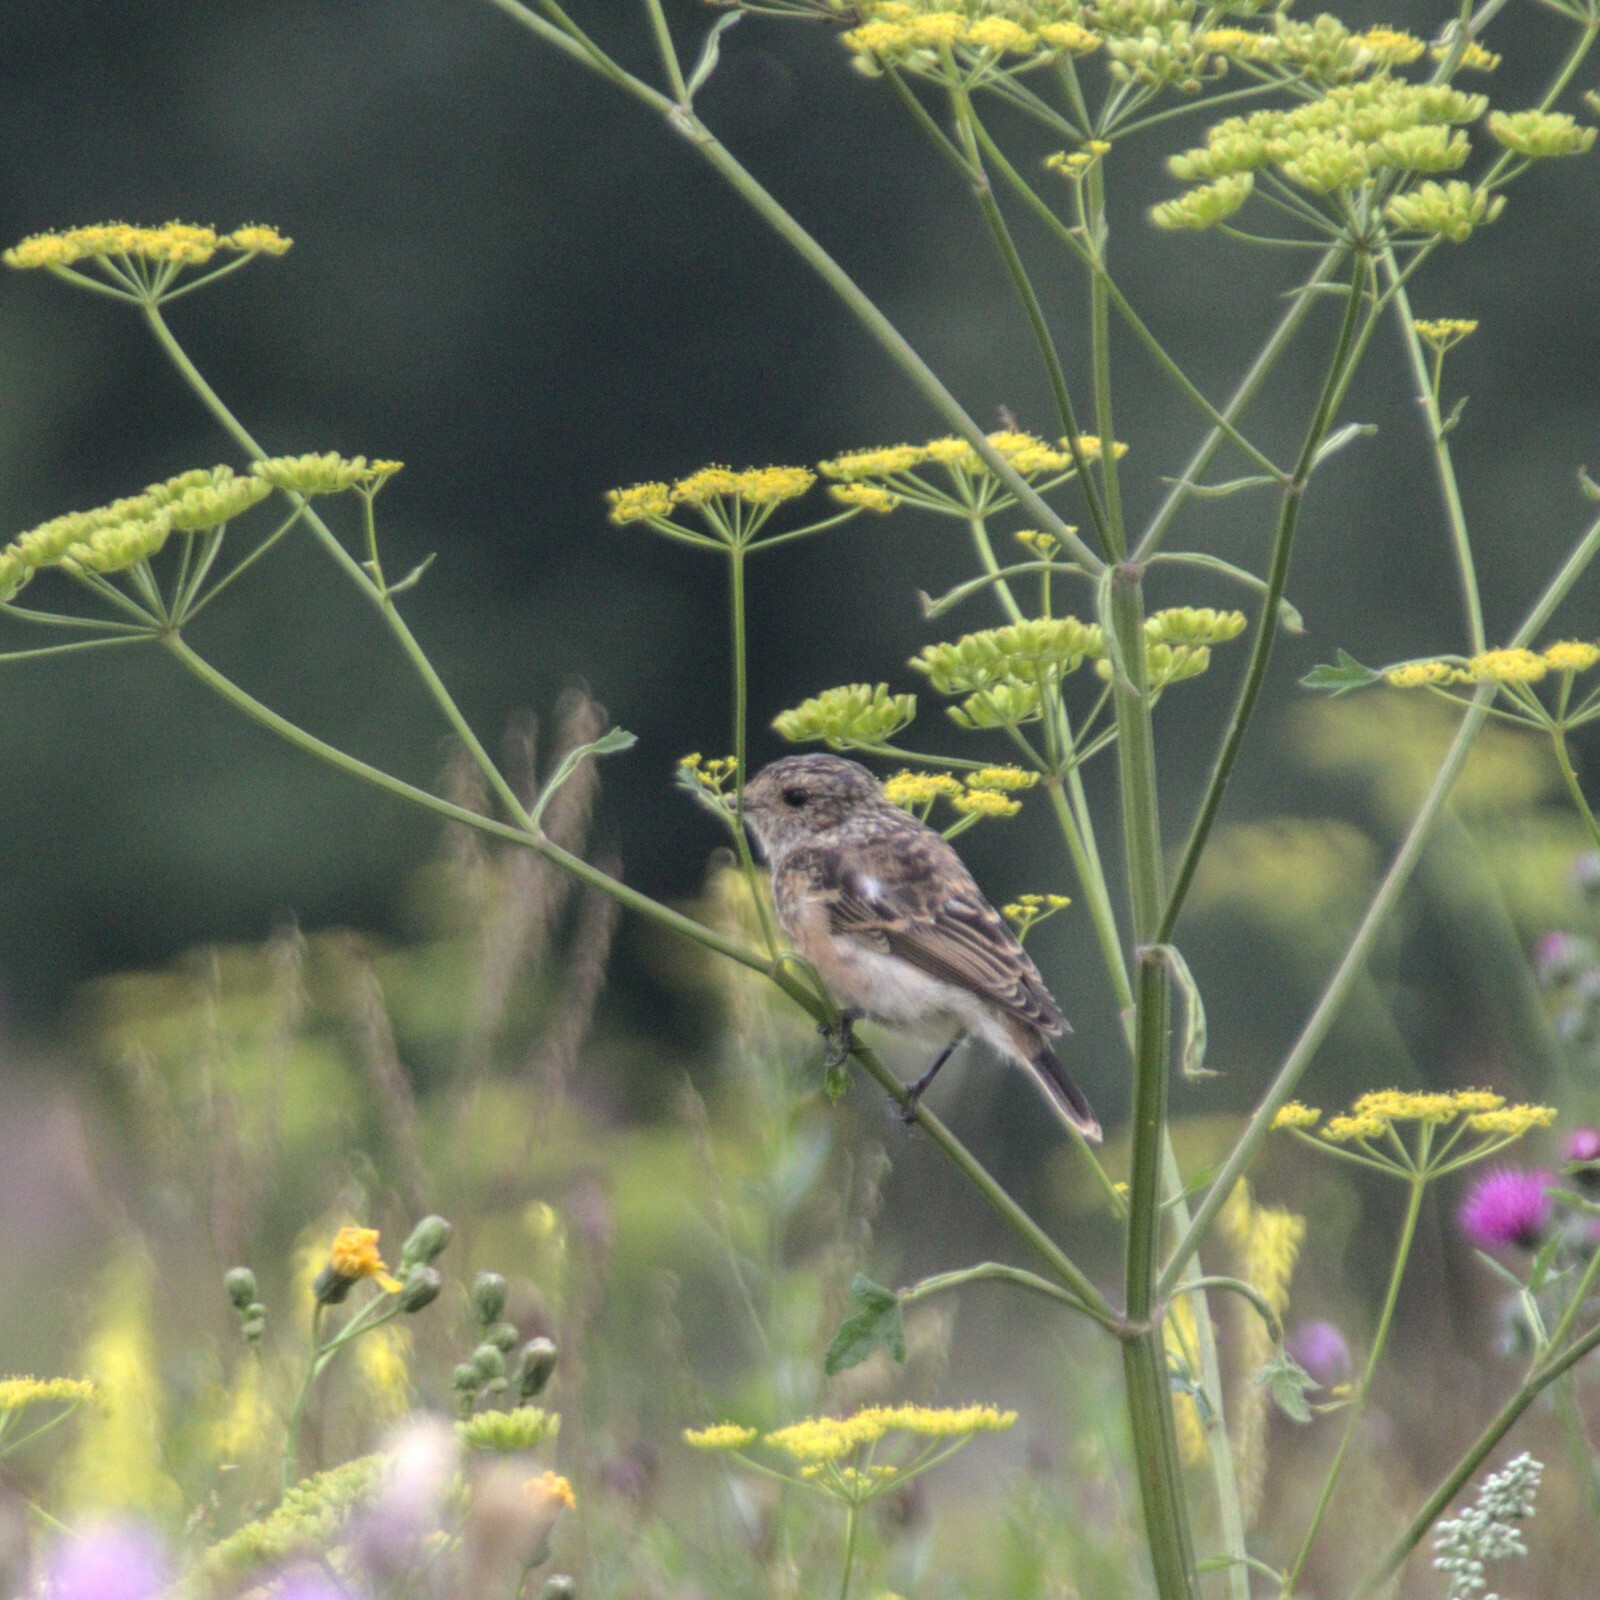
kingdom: Animalia
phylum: Chordata
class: Aves
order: Passeriformes
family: Muscicapidae
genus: Saxicola
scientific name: Saxicola maurus
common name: Siberian stonechat
